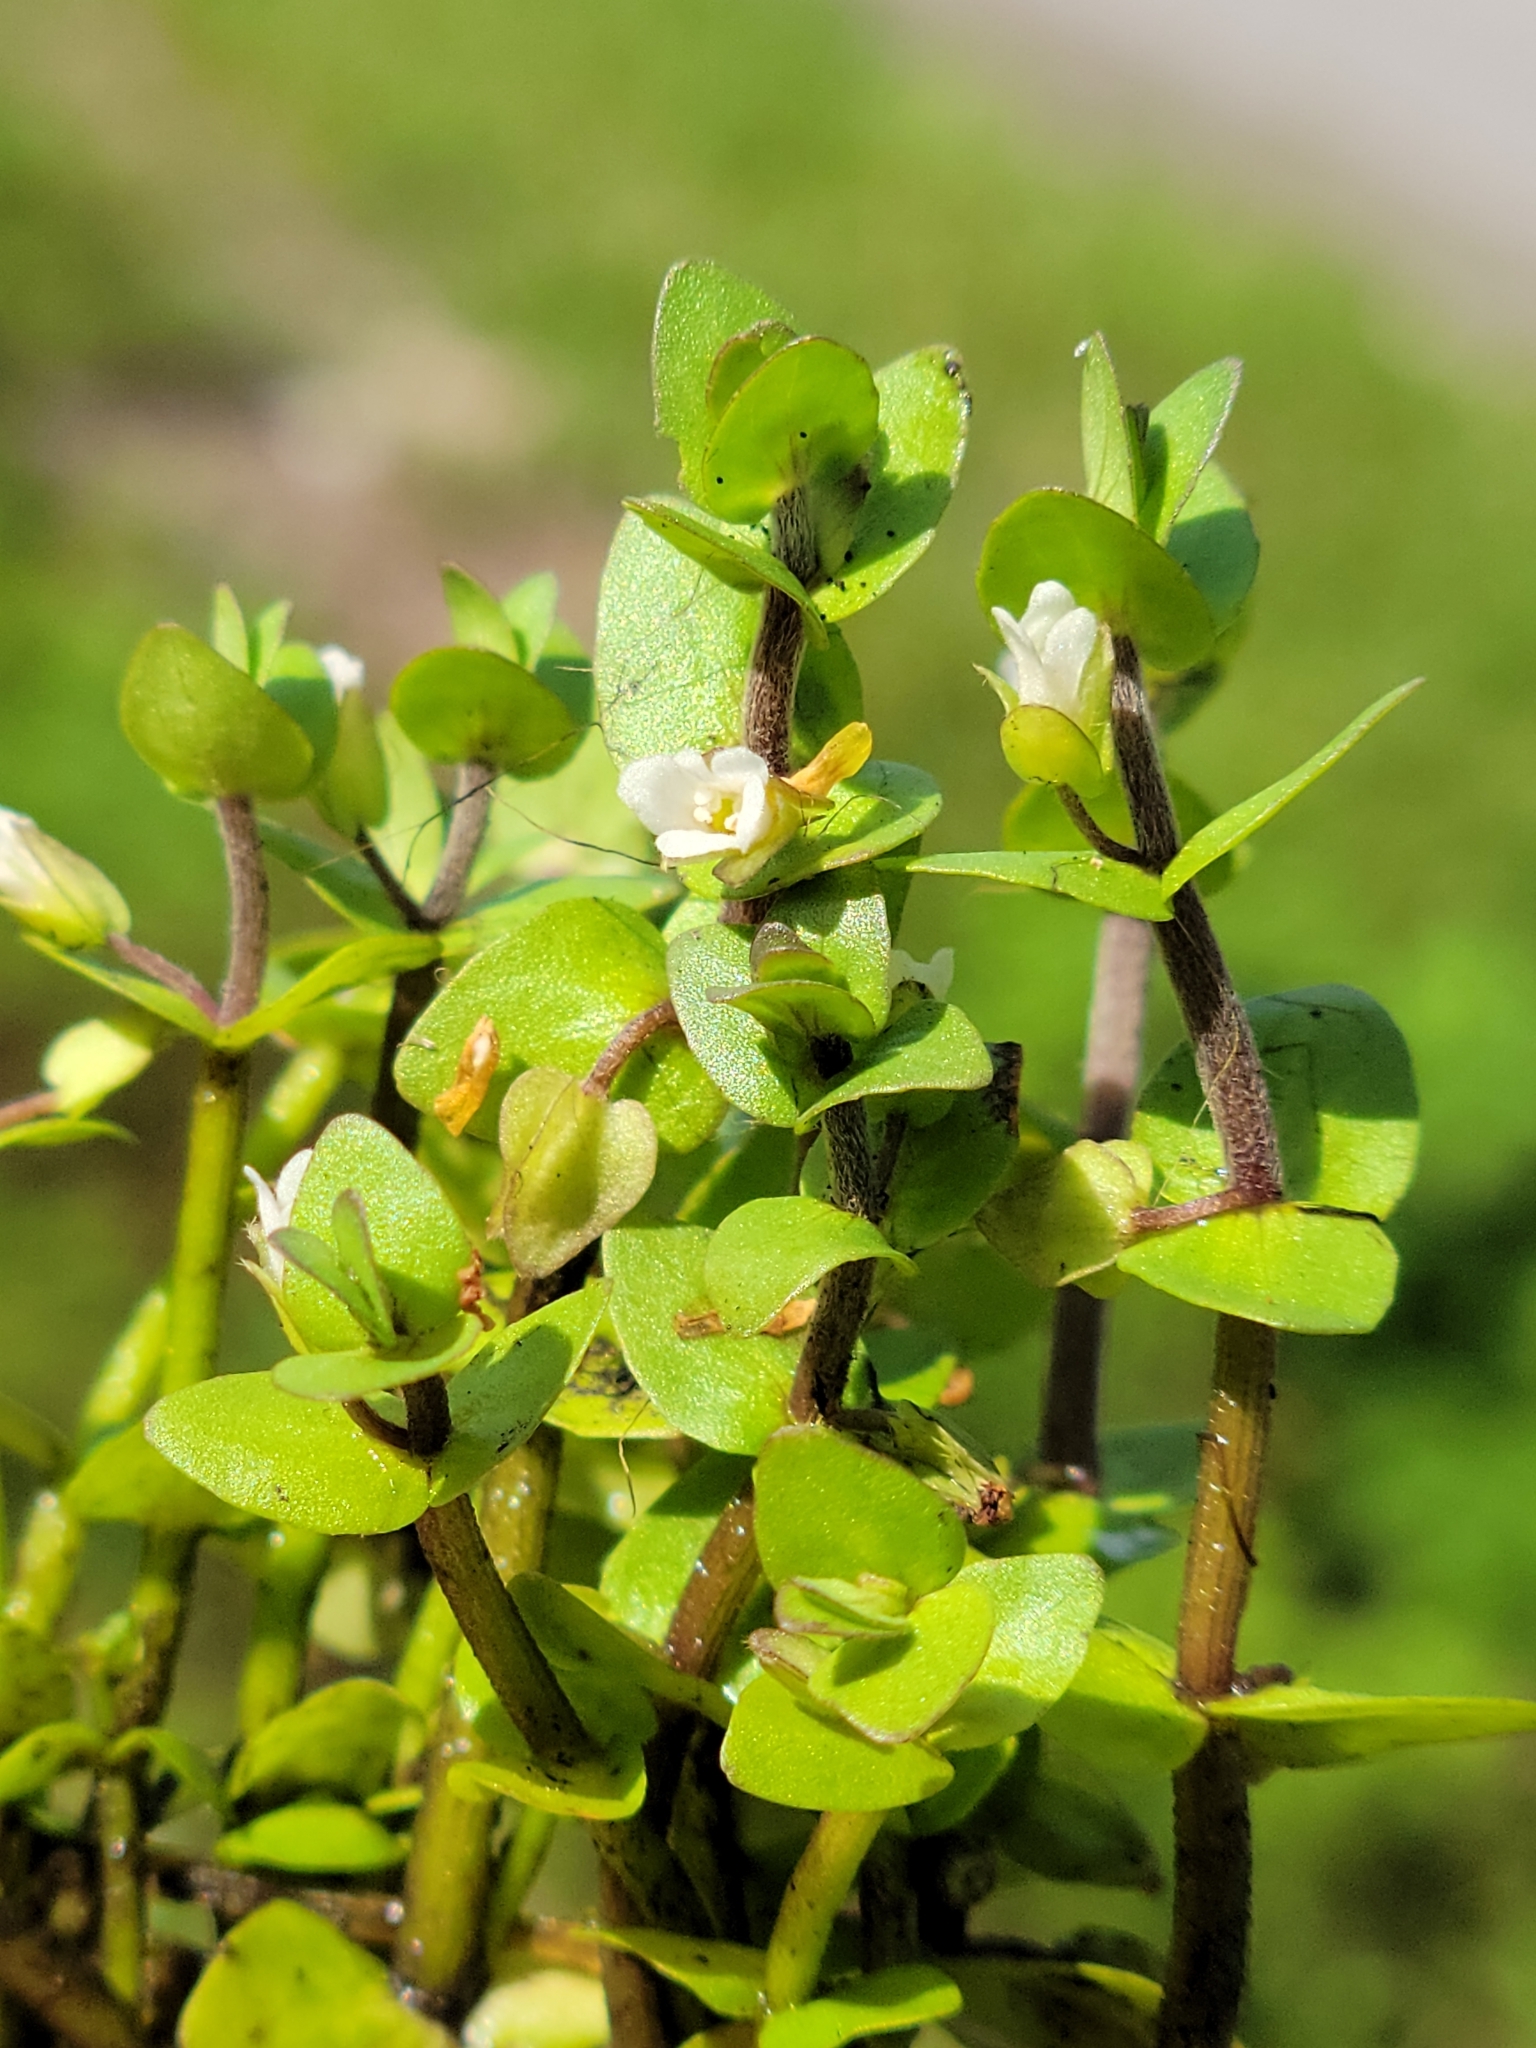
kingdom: Plantae
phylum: Tracheophyta
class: Magnoliopsida
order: Lamiales
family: Plantaginaceae
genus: Bacopa
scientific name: Bacopa innominata
